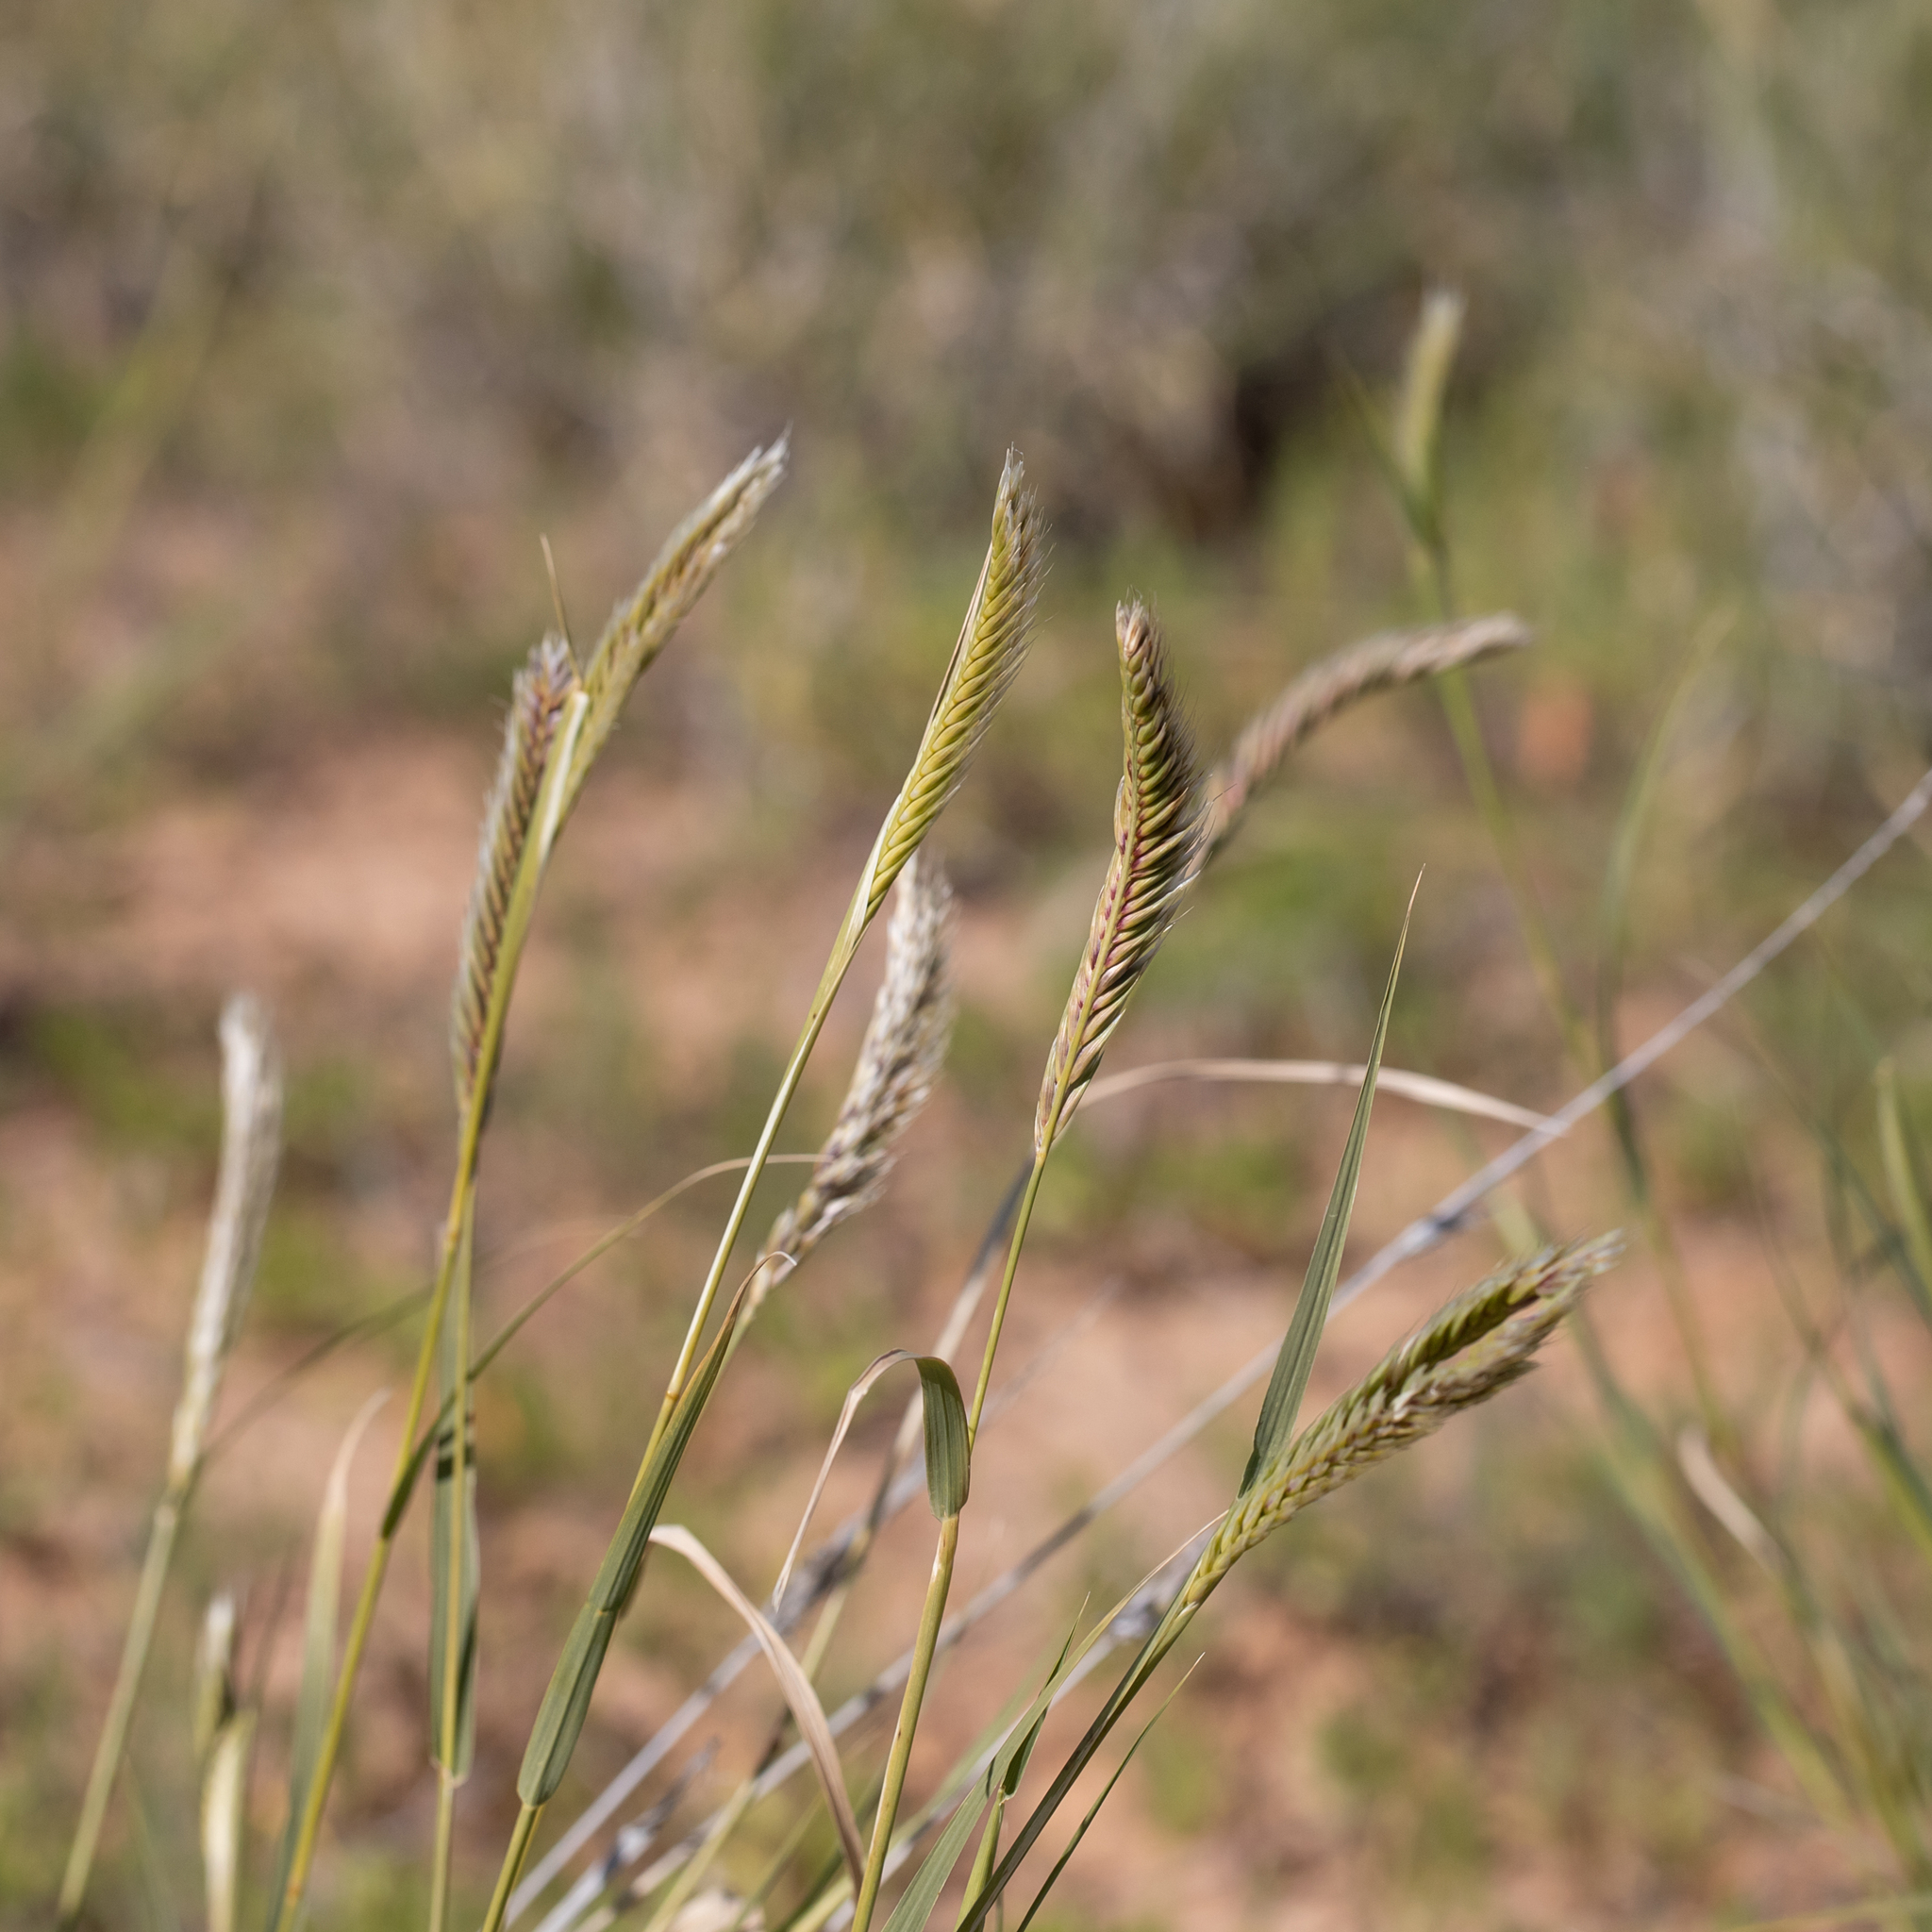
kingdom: Plantae
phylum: Tracheophyta
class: Liliopsida
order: Poales
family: Poaceae
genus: Astrebla
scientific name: Astrebla pectinata
